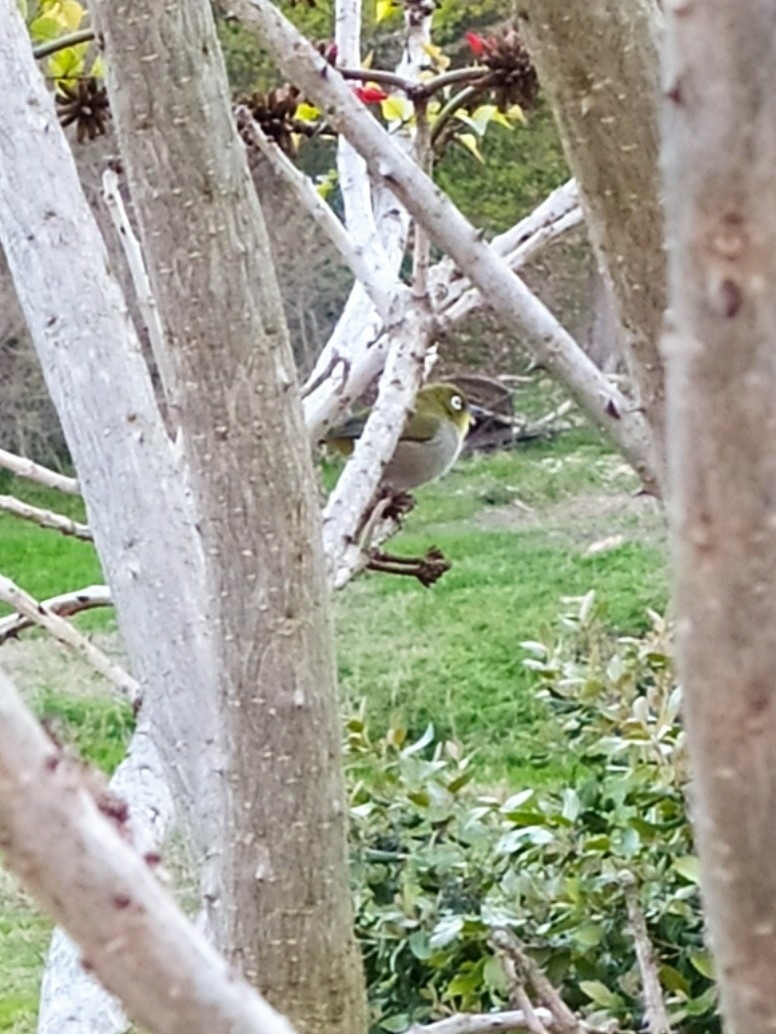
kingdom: Animalia
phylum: Chordata
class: Aves
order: Passeriformes
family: Zosteropidae
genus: Zosterops
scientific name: Zosterops virens
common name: Cape white-eye
